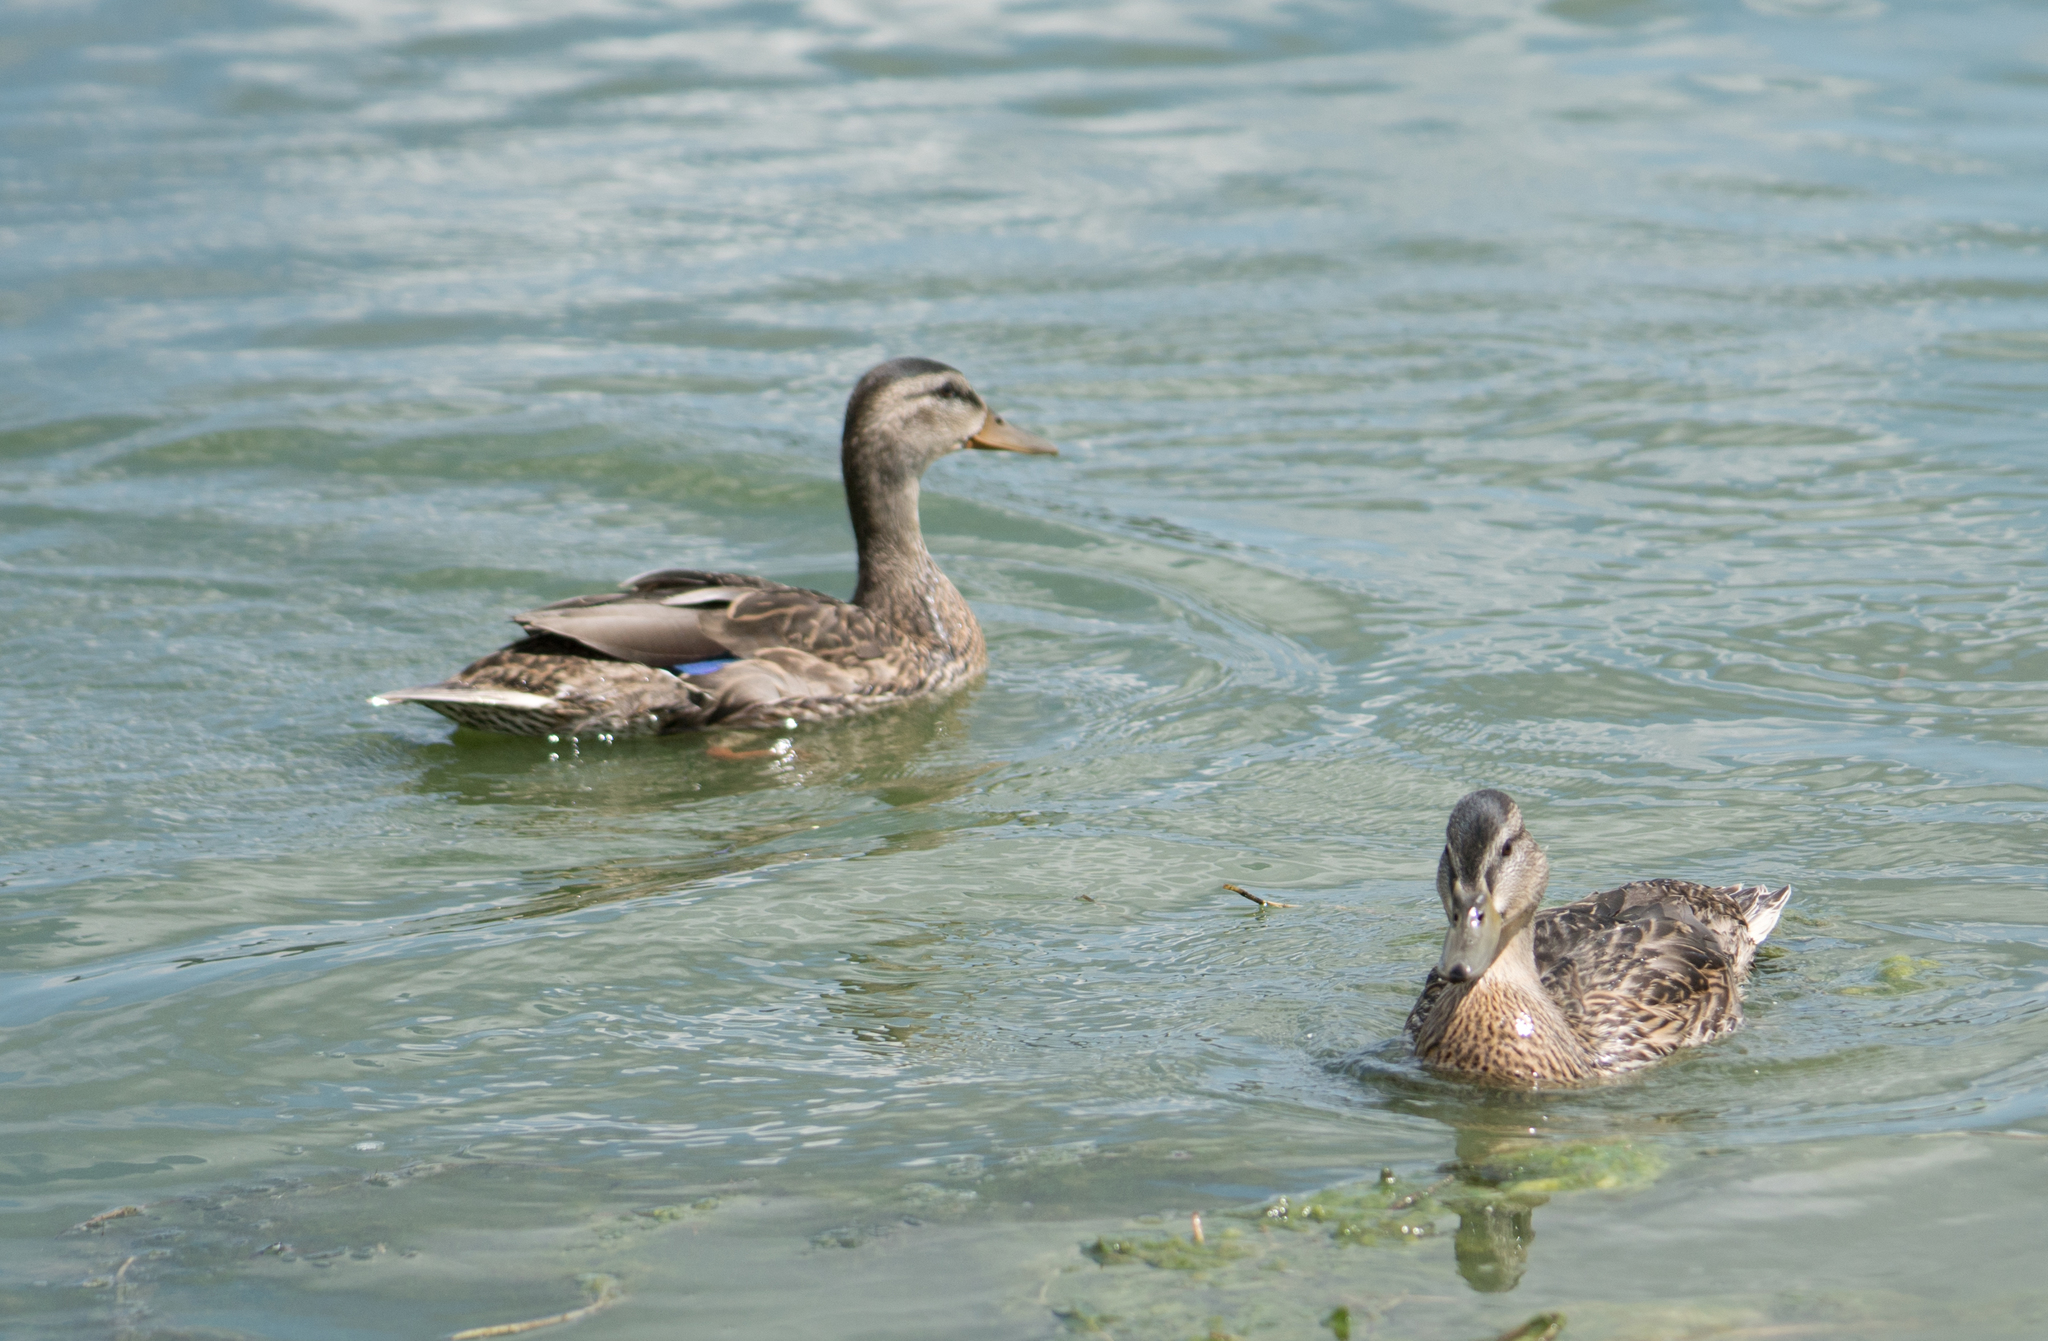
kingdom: Animalia
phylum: Chordata
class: Aves
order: Anseriformes
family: Anatidae
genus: Anas
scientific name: Anas platyrhynchos
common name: Mallard
